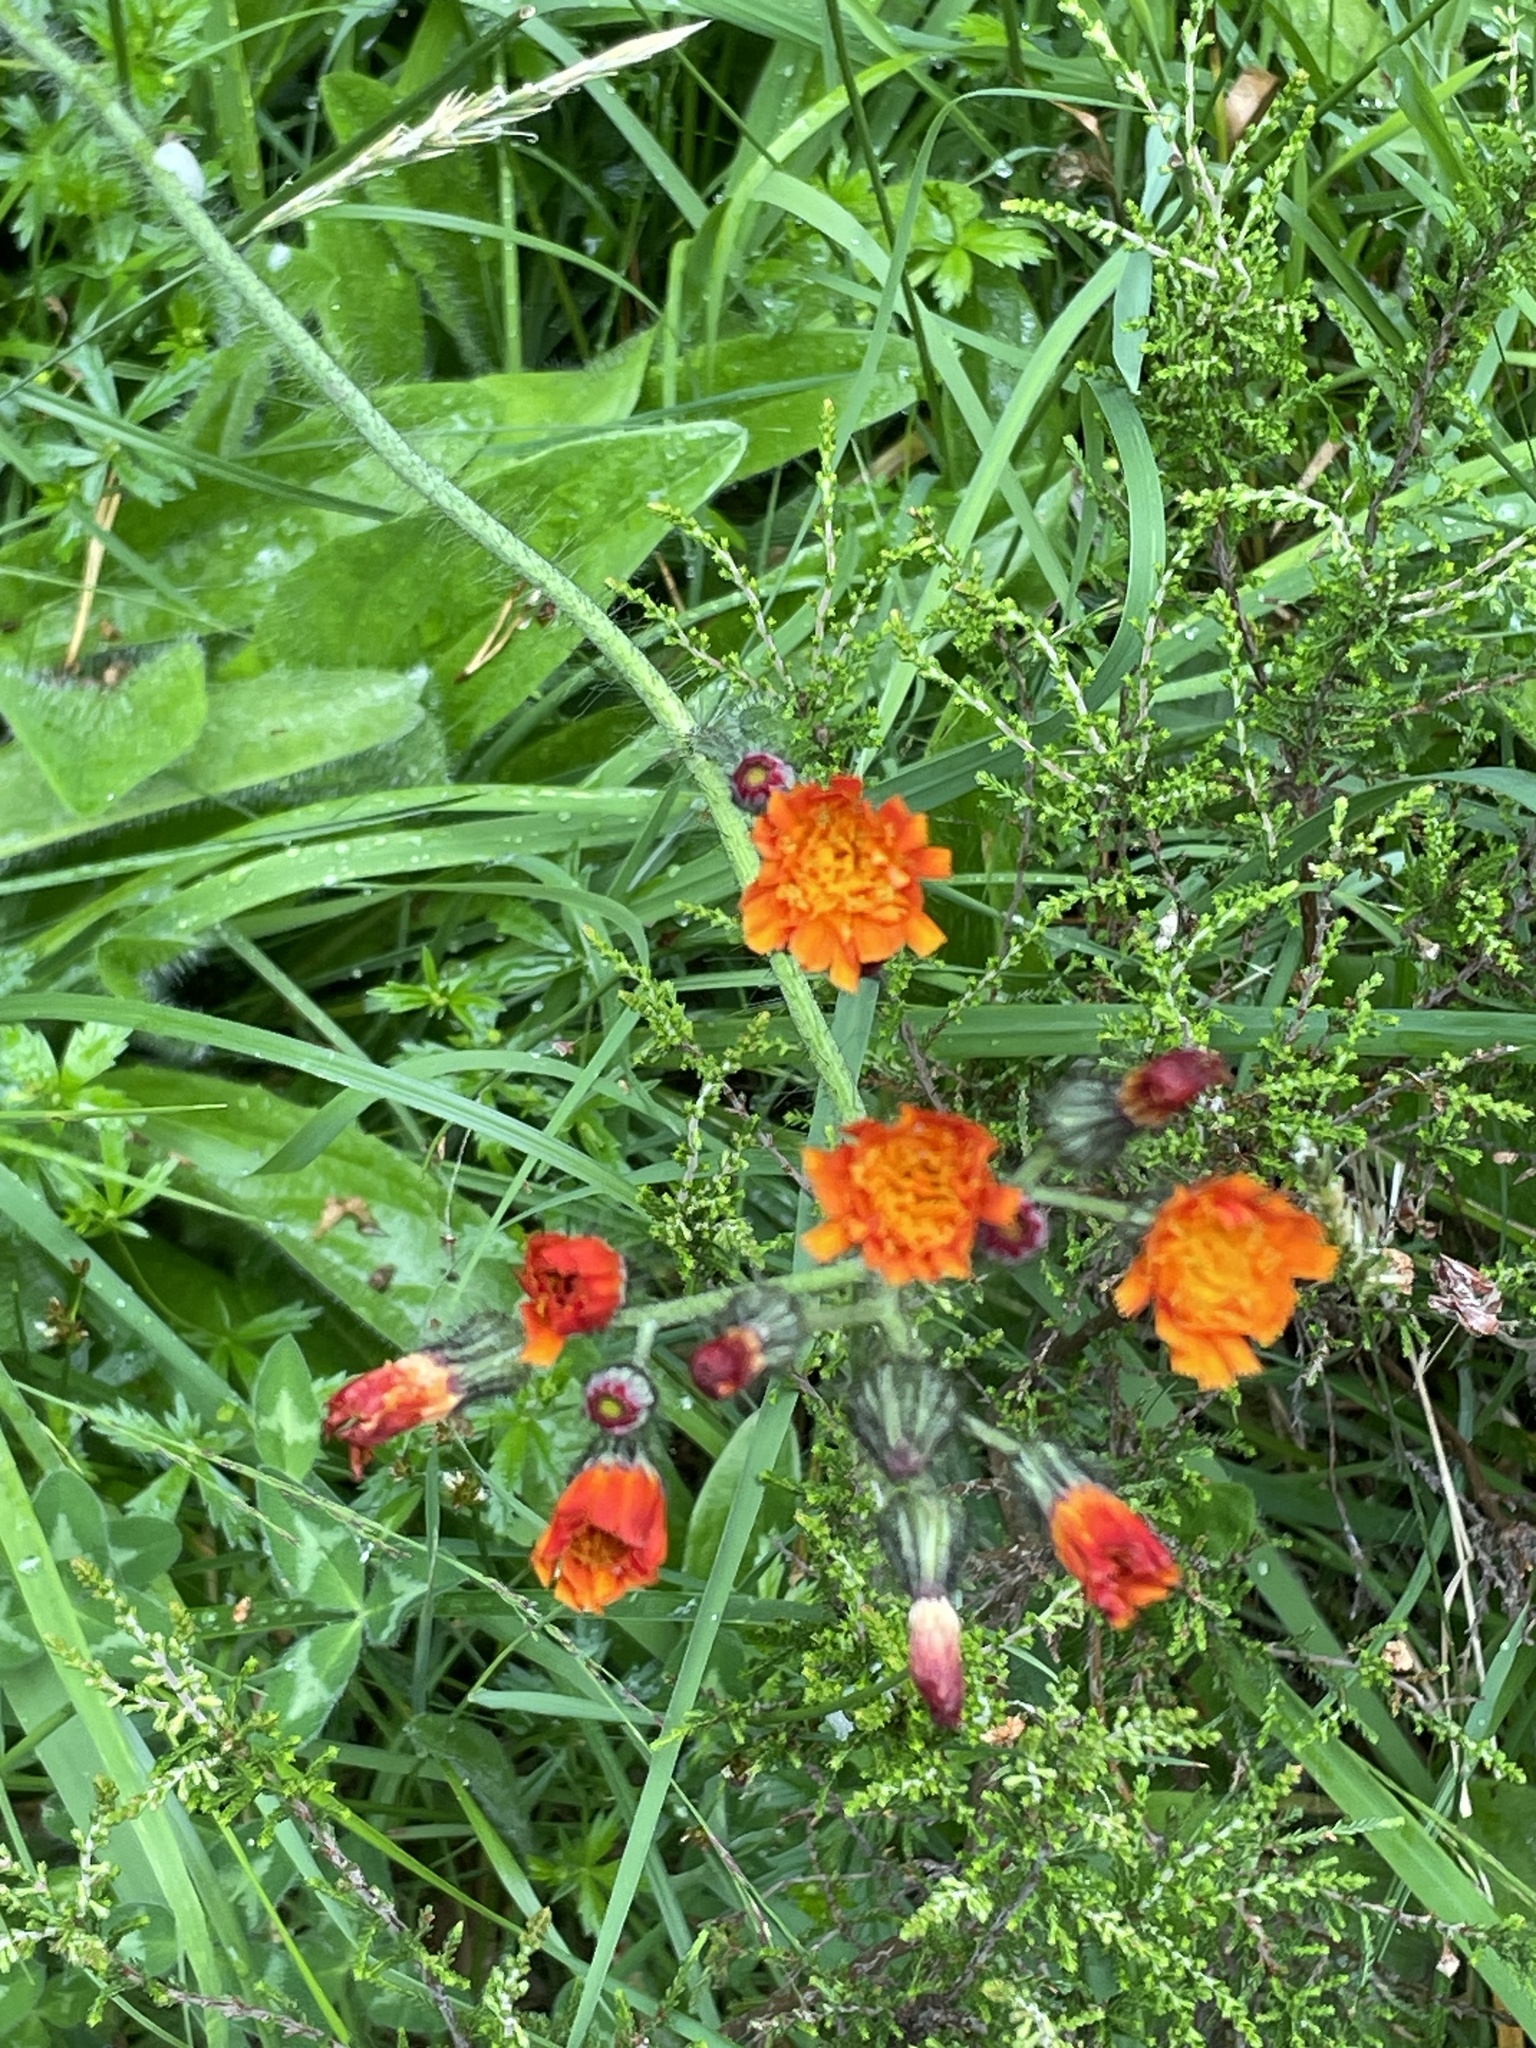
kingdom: Plantae
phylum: Tracheophyta
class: Magnoliopsida
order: Asterales
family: Asteraceae
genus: Pilosella
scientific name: Pilosella aurantiaca
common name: Fox-and-cubs
